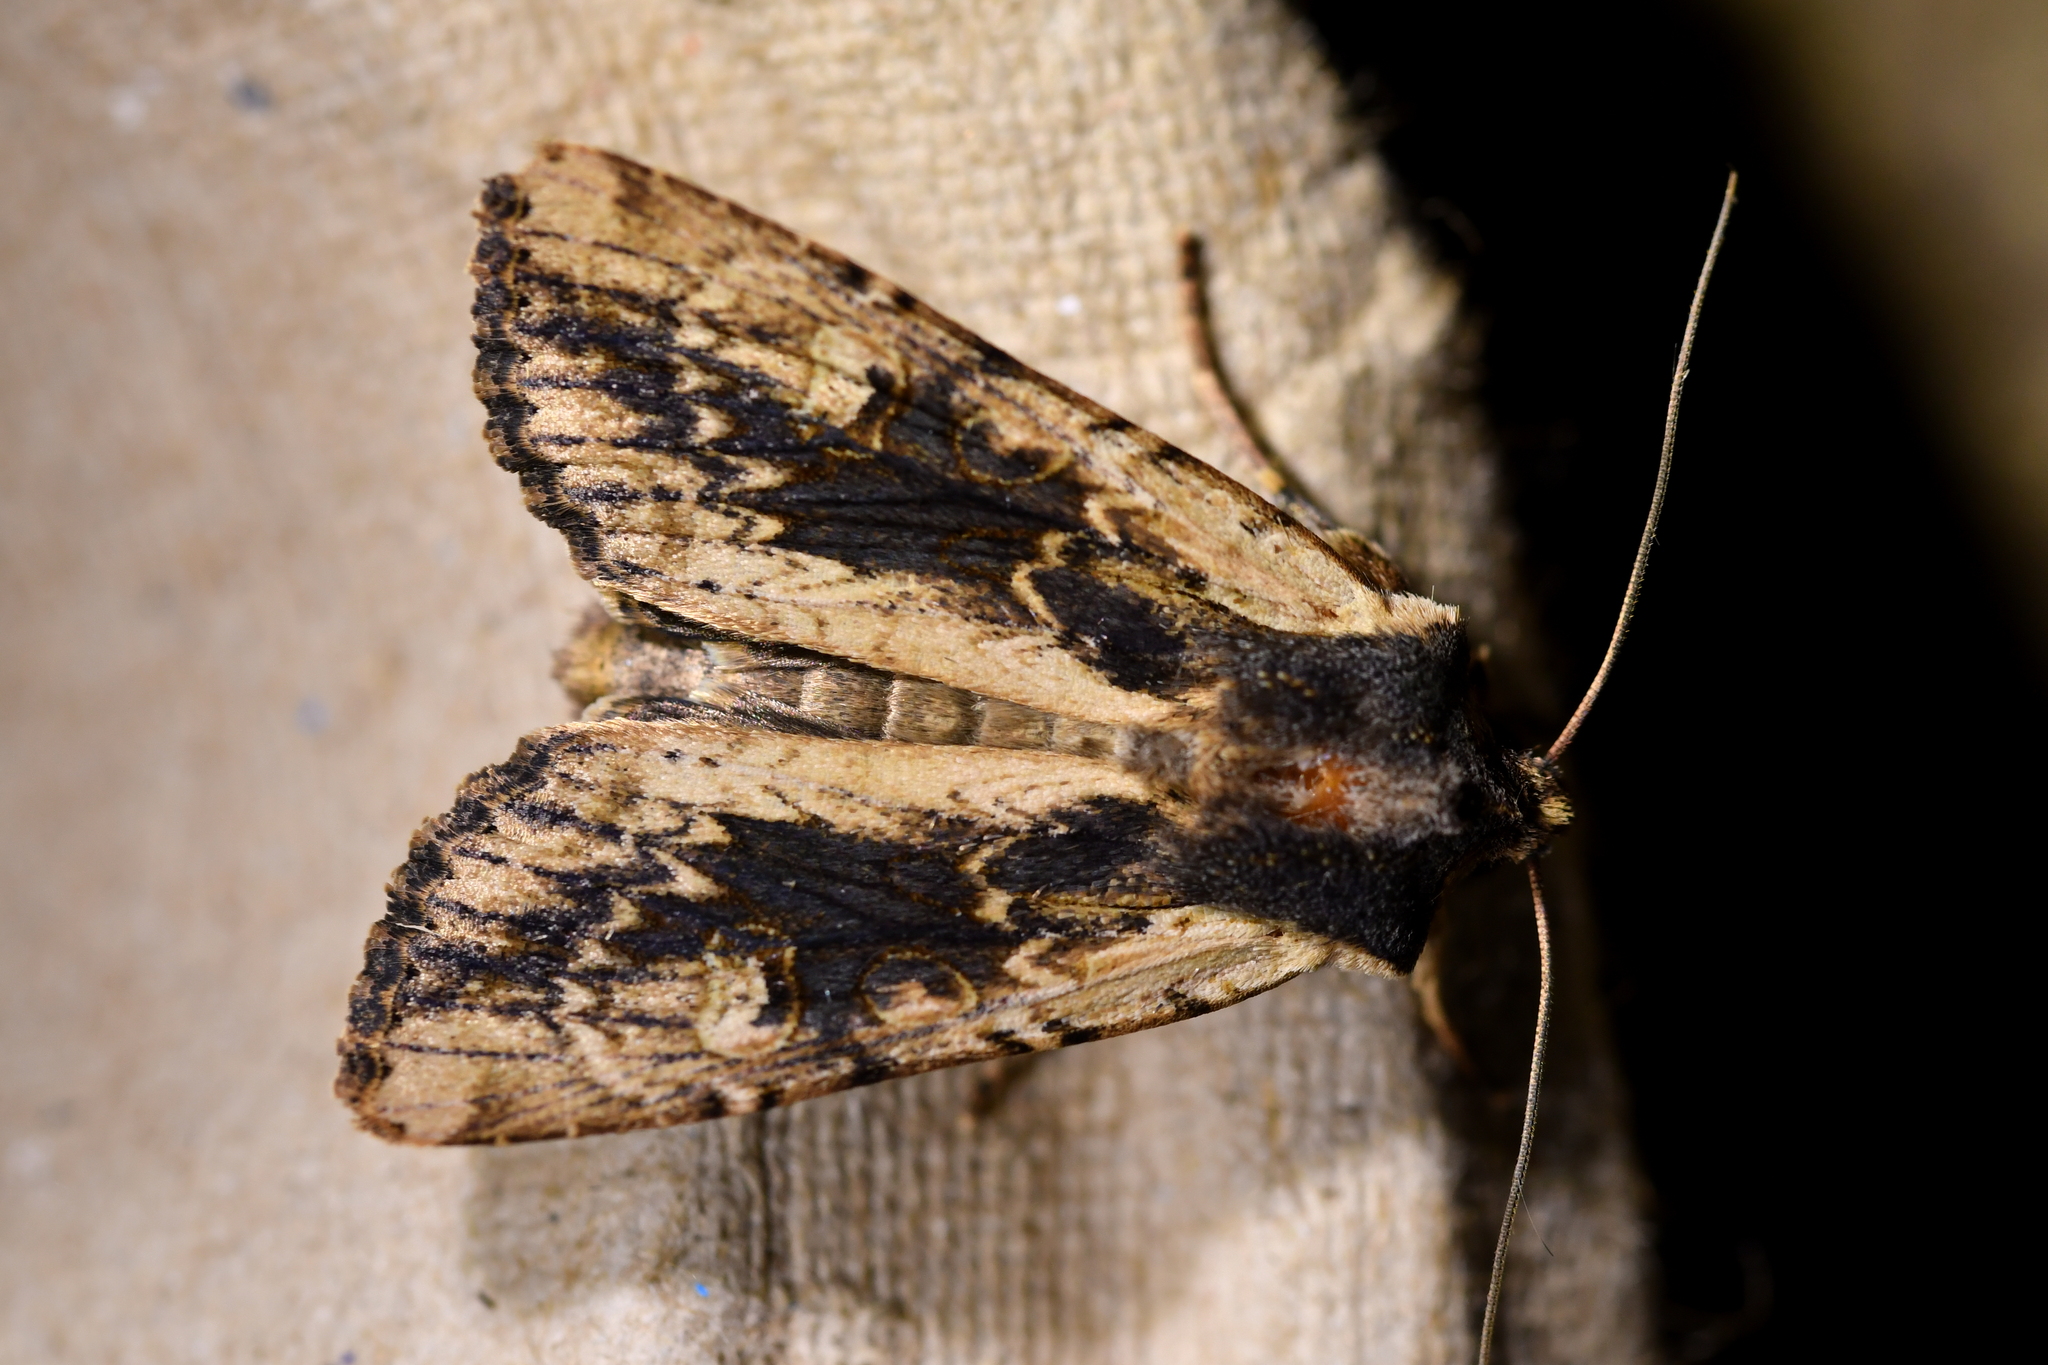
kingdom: Animalia
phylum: Arthropoda
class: Insecta
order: Lepidoptera
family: Noctuidae
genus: Ichneutica
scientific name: Ichneutica omoplaca
